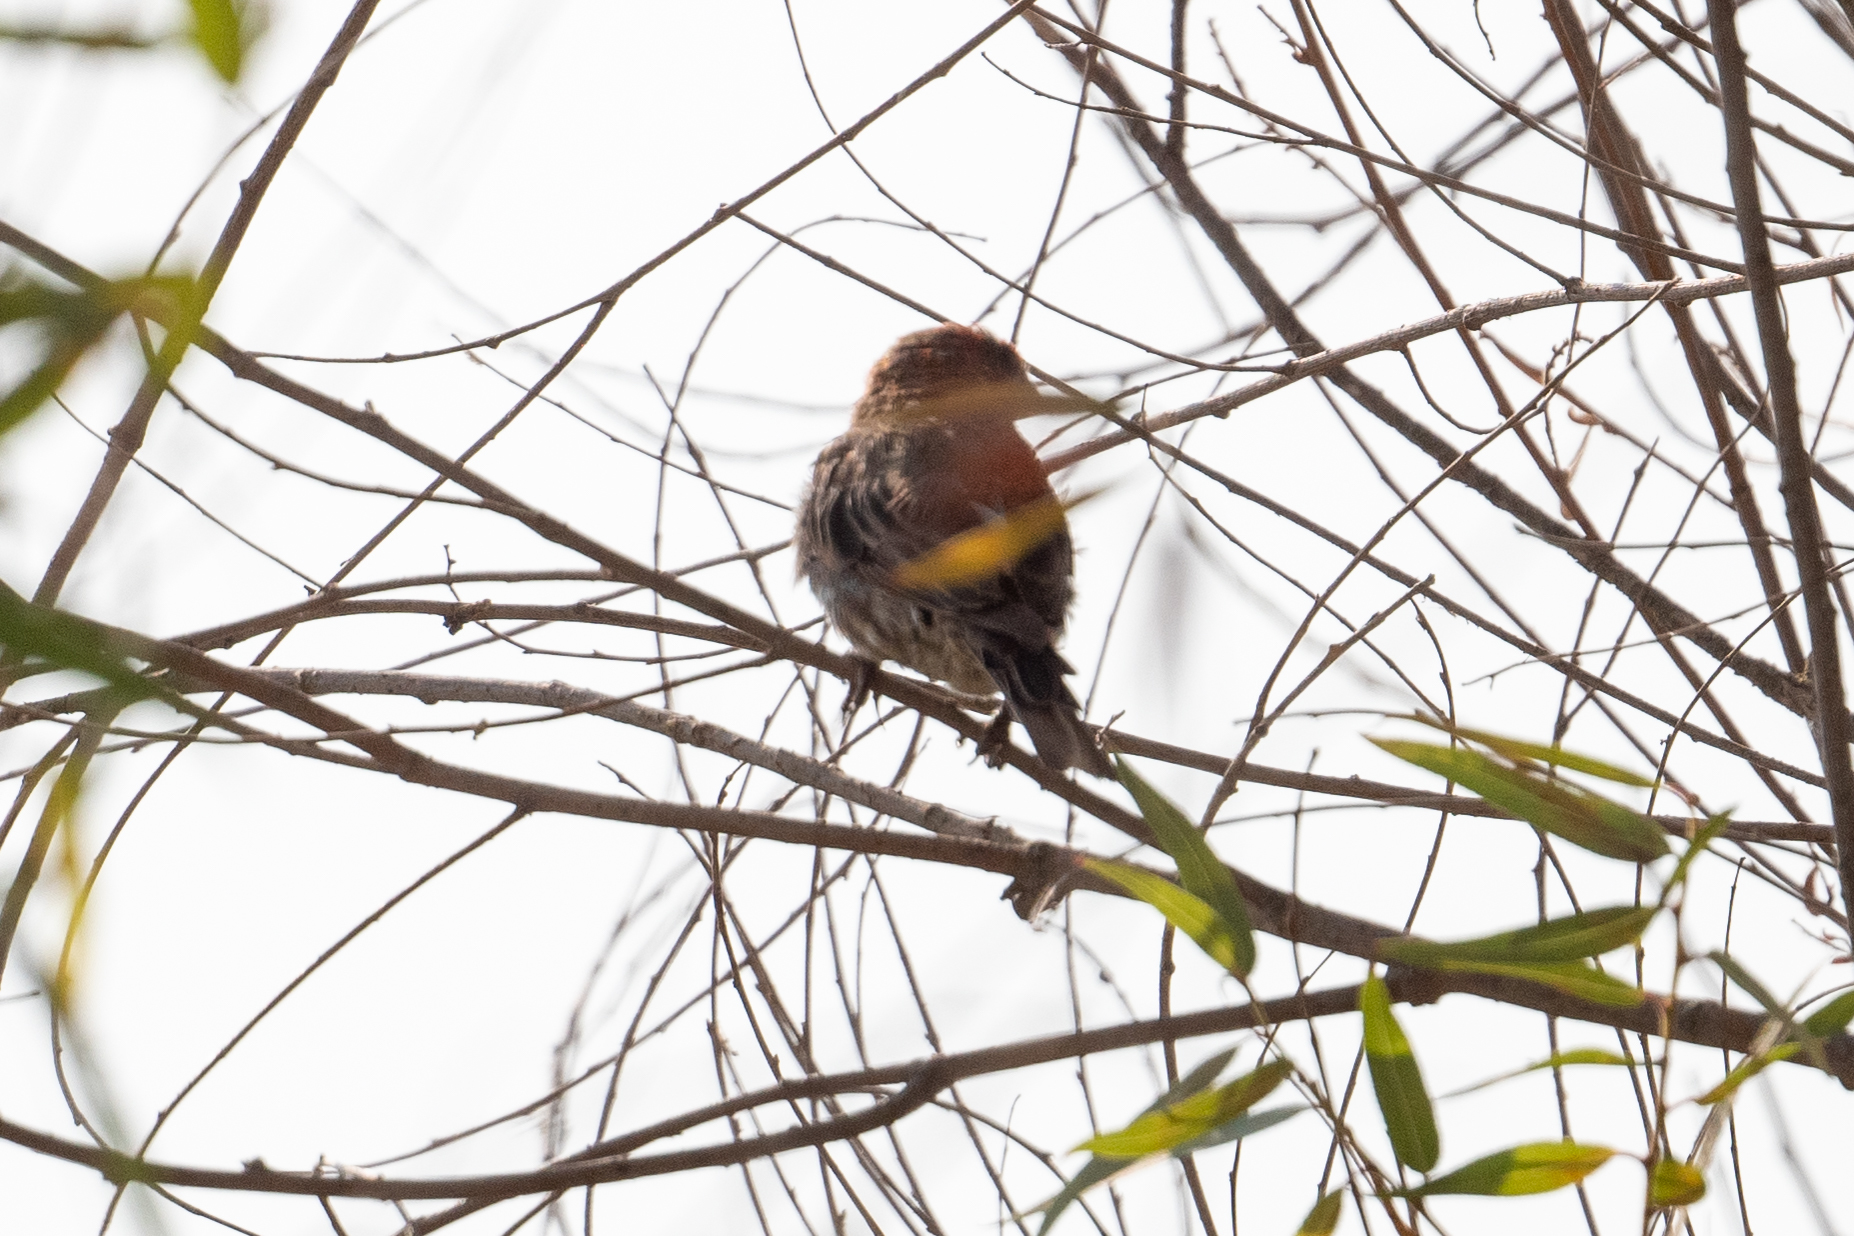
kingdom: Animalia
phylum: Chordata
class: Aves
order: Passeriformes
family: Fringillidae
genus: Haemorhous
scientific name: Haemorhous mexicanus
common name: House finch
